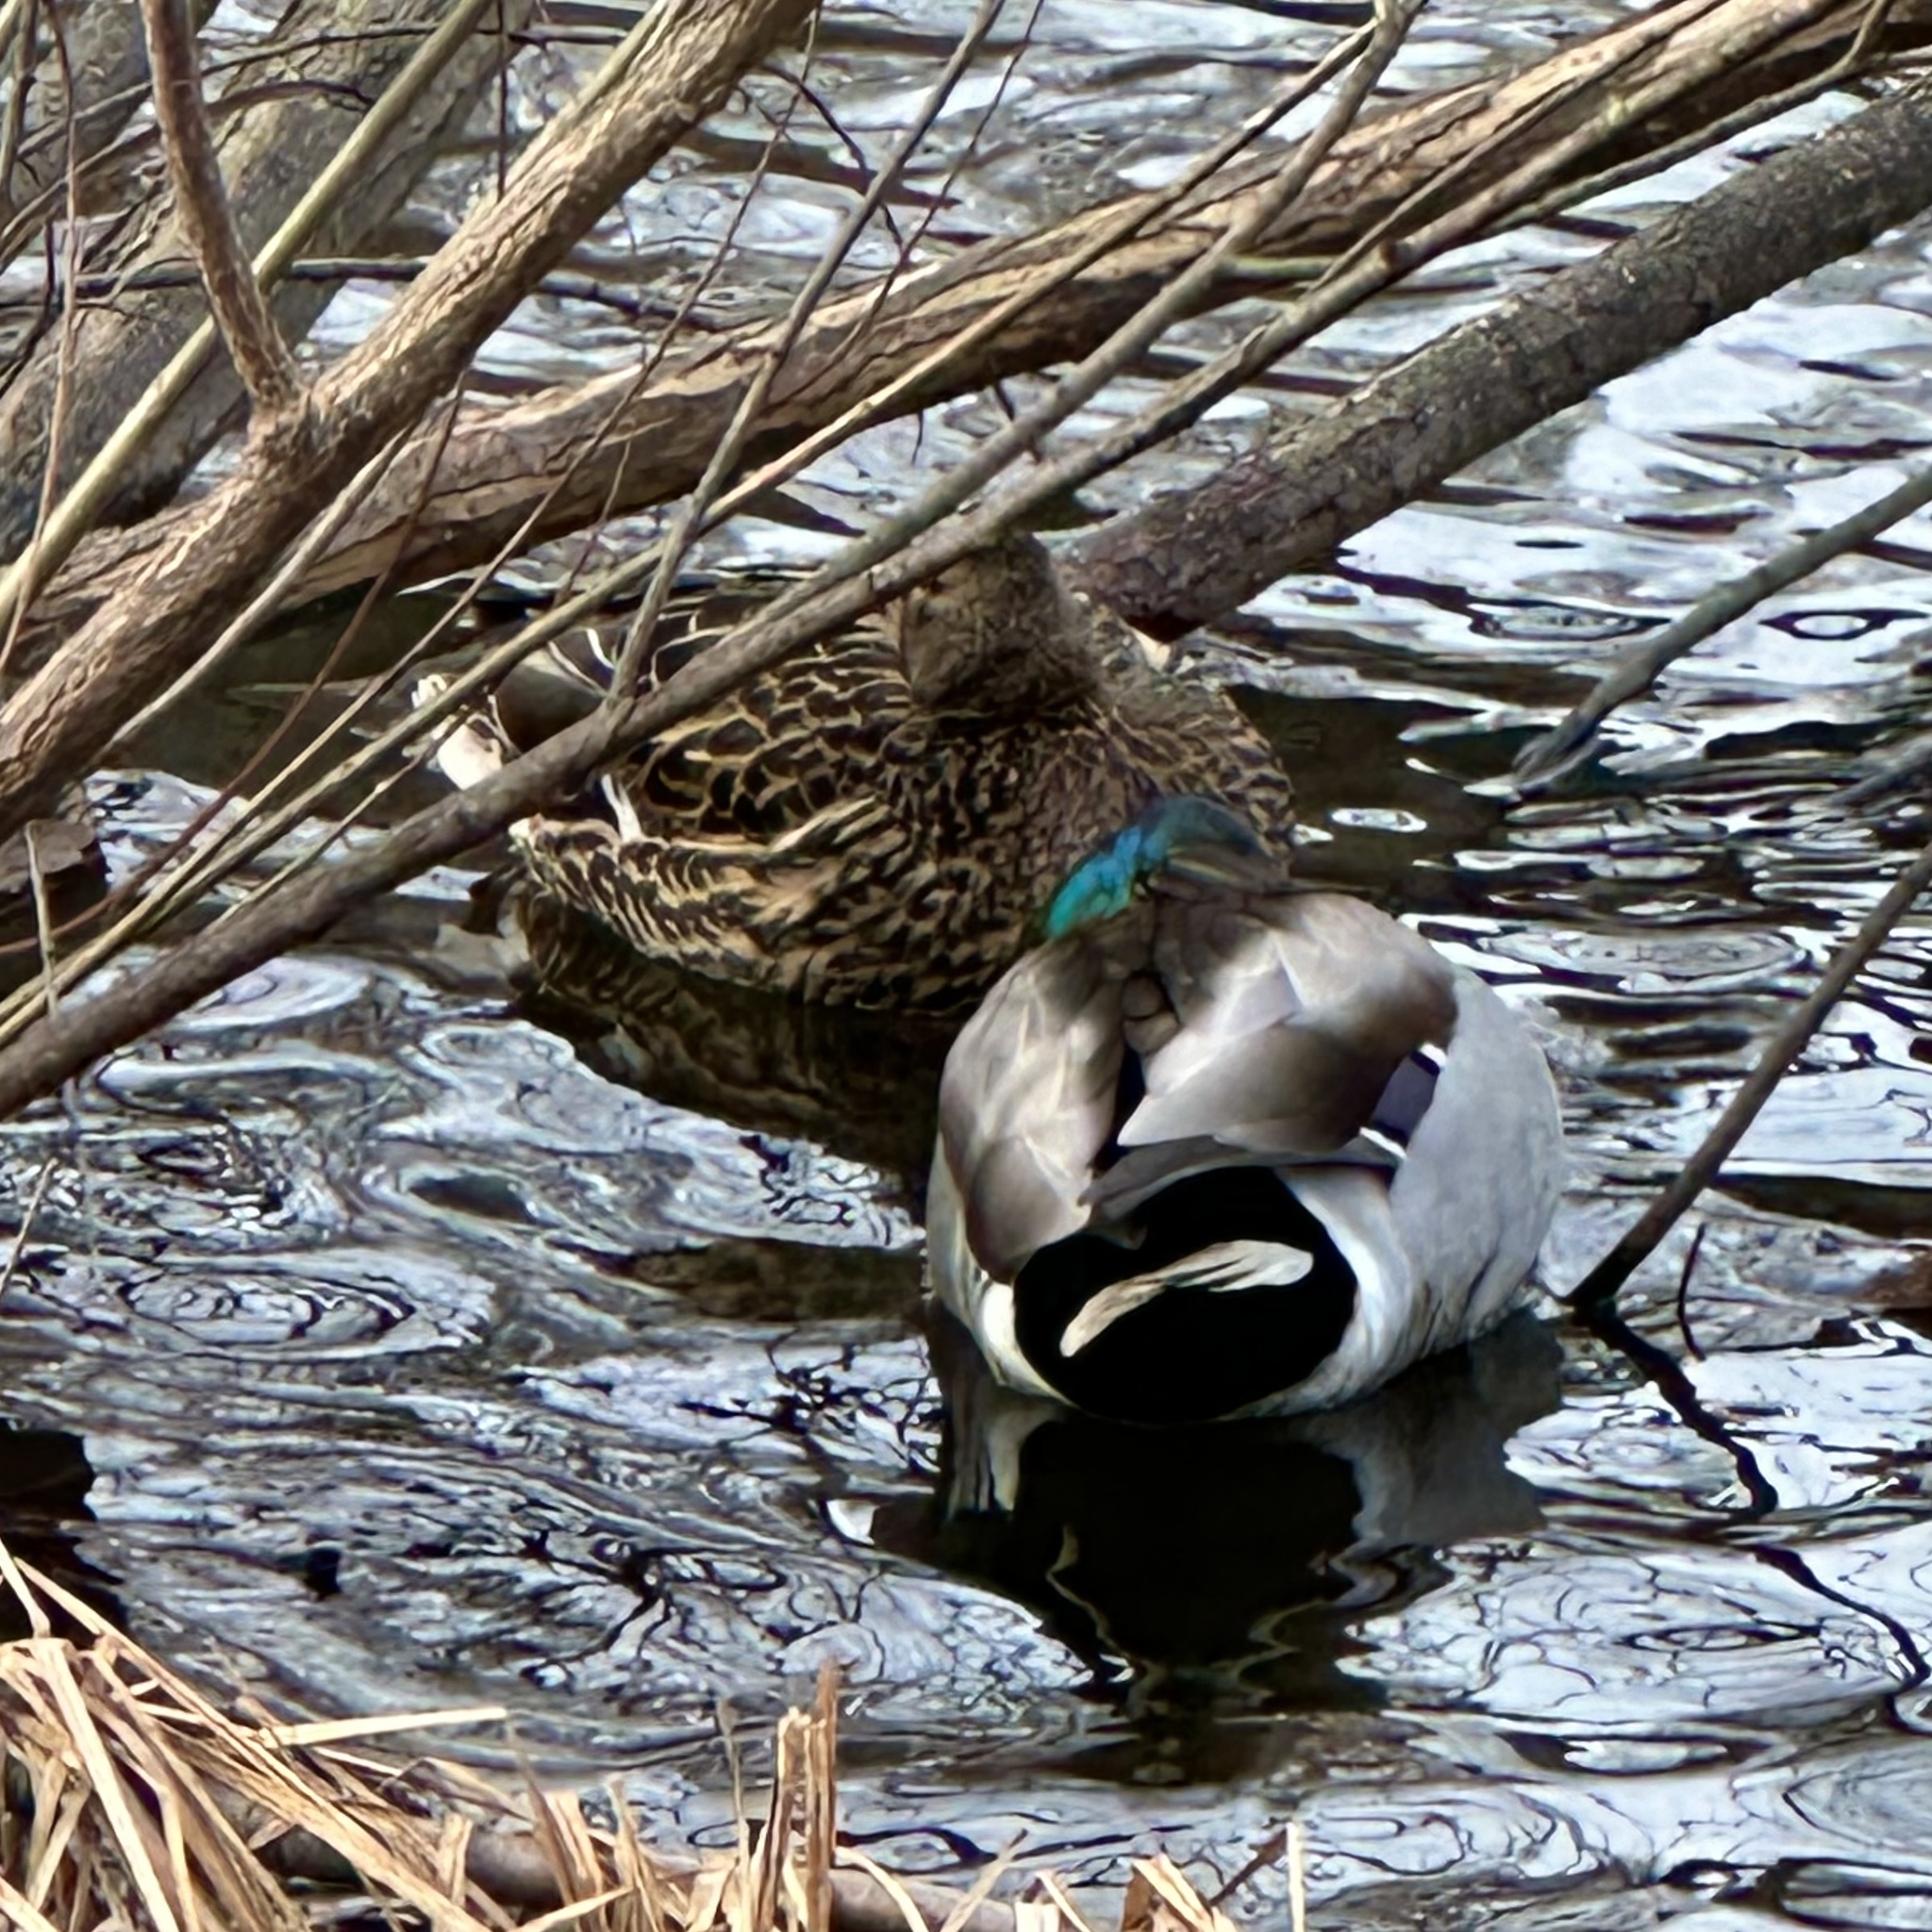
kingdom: Animalia
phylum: Chordata
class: Aves
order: Anseriformes
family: Anatidae
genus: Anas
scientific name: Anas platyrhynchos
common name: Mallard
